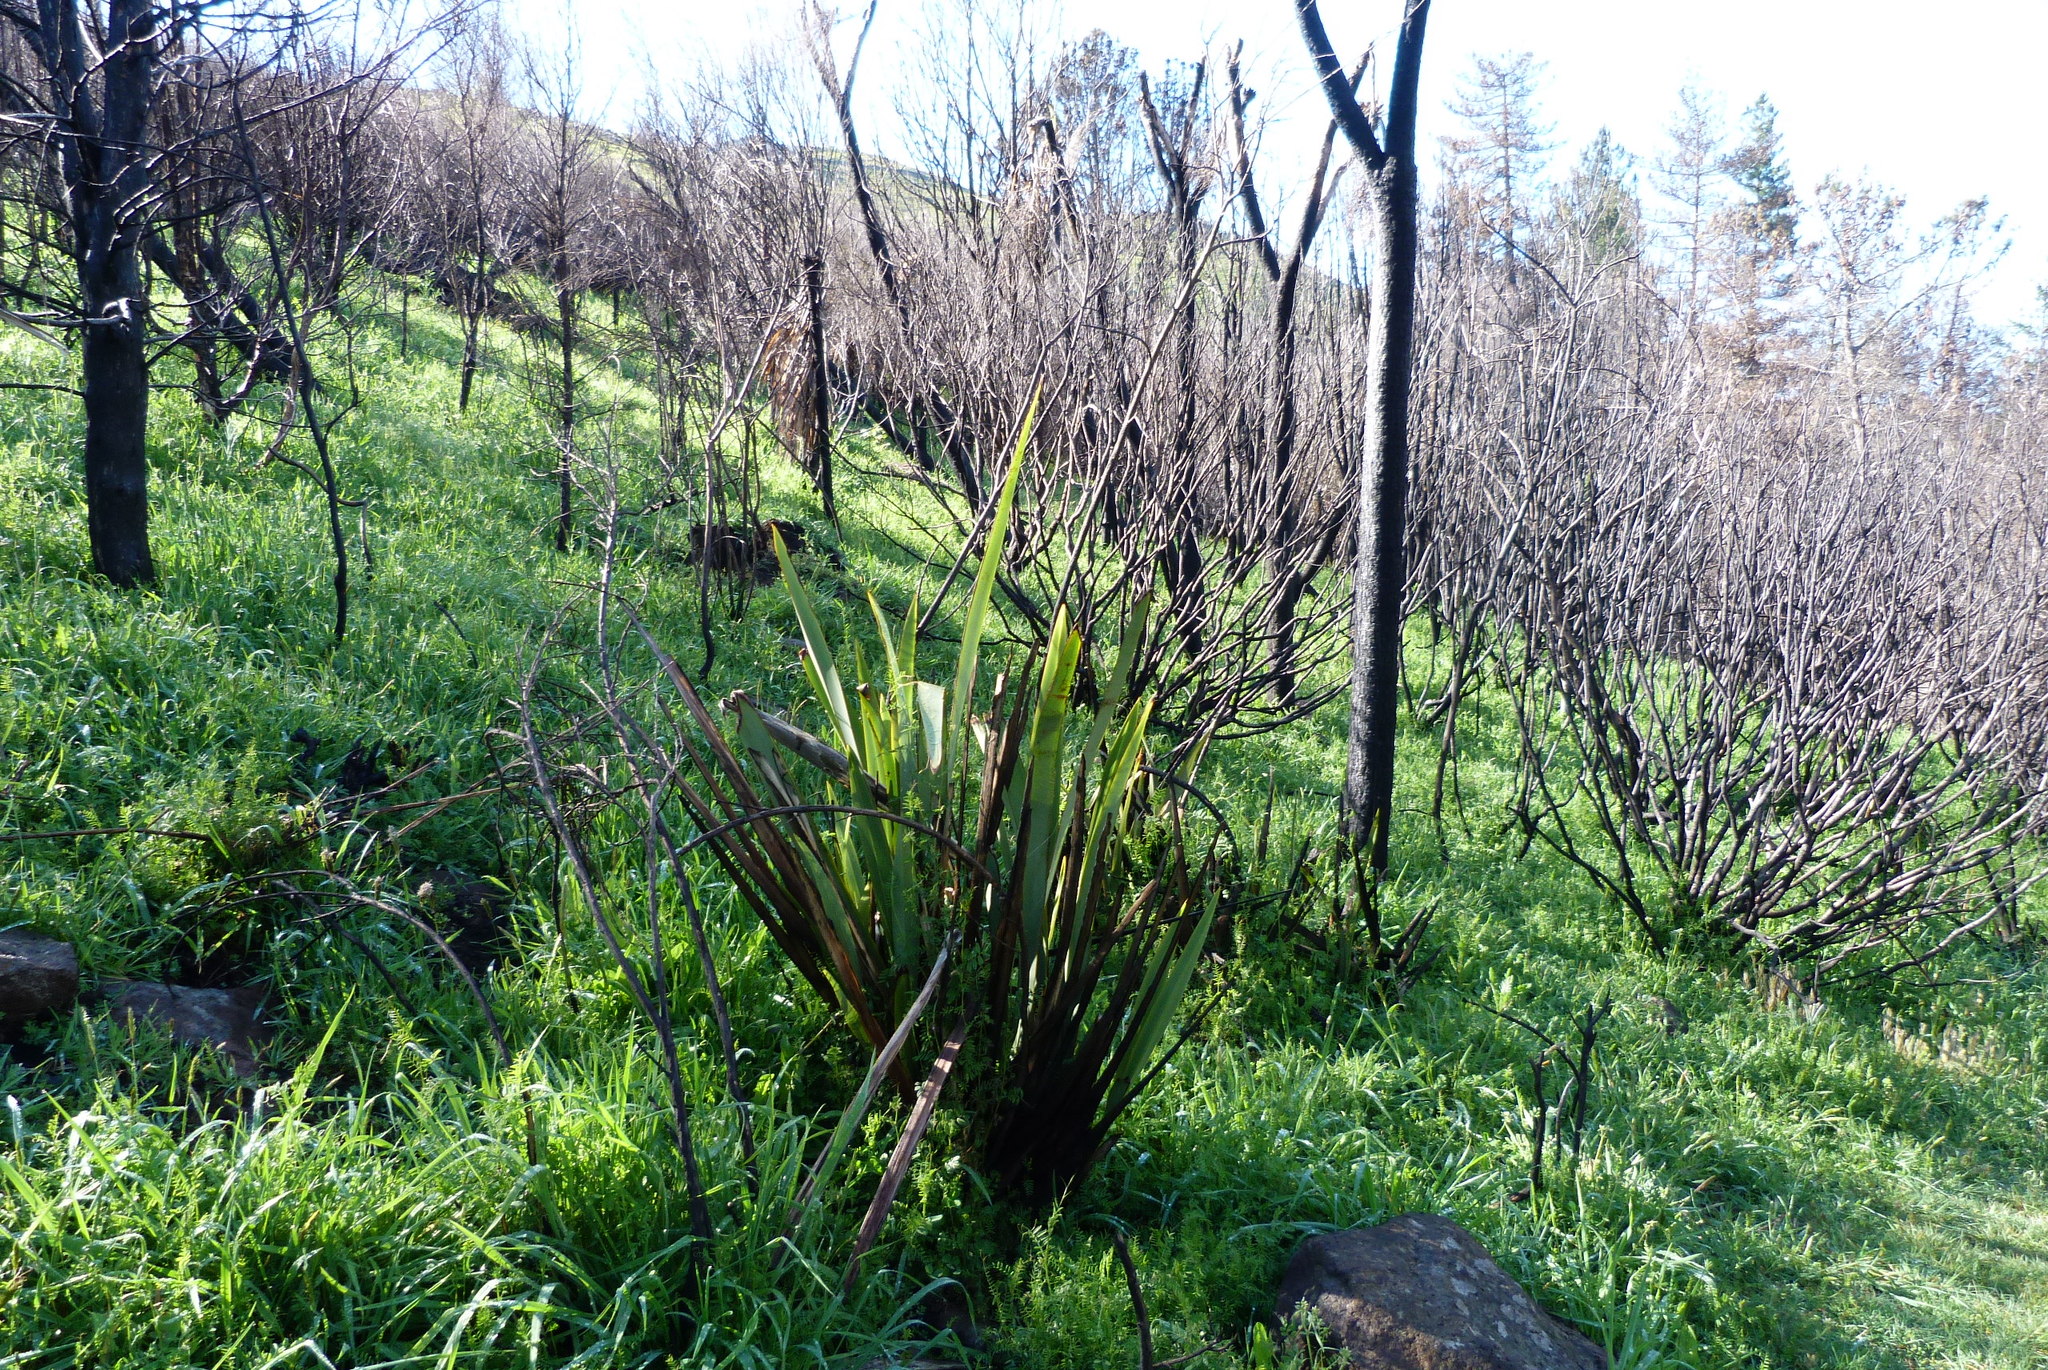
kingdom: Plantae
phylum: Tracheophyta
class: Liliopsida
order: Asparagales
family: Asphodelaceae
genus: Phormium
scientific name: Phormium tenax
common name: New zealand flax
